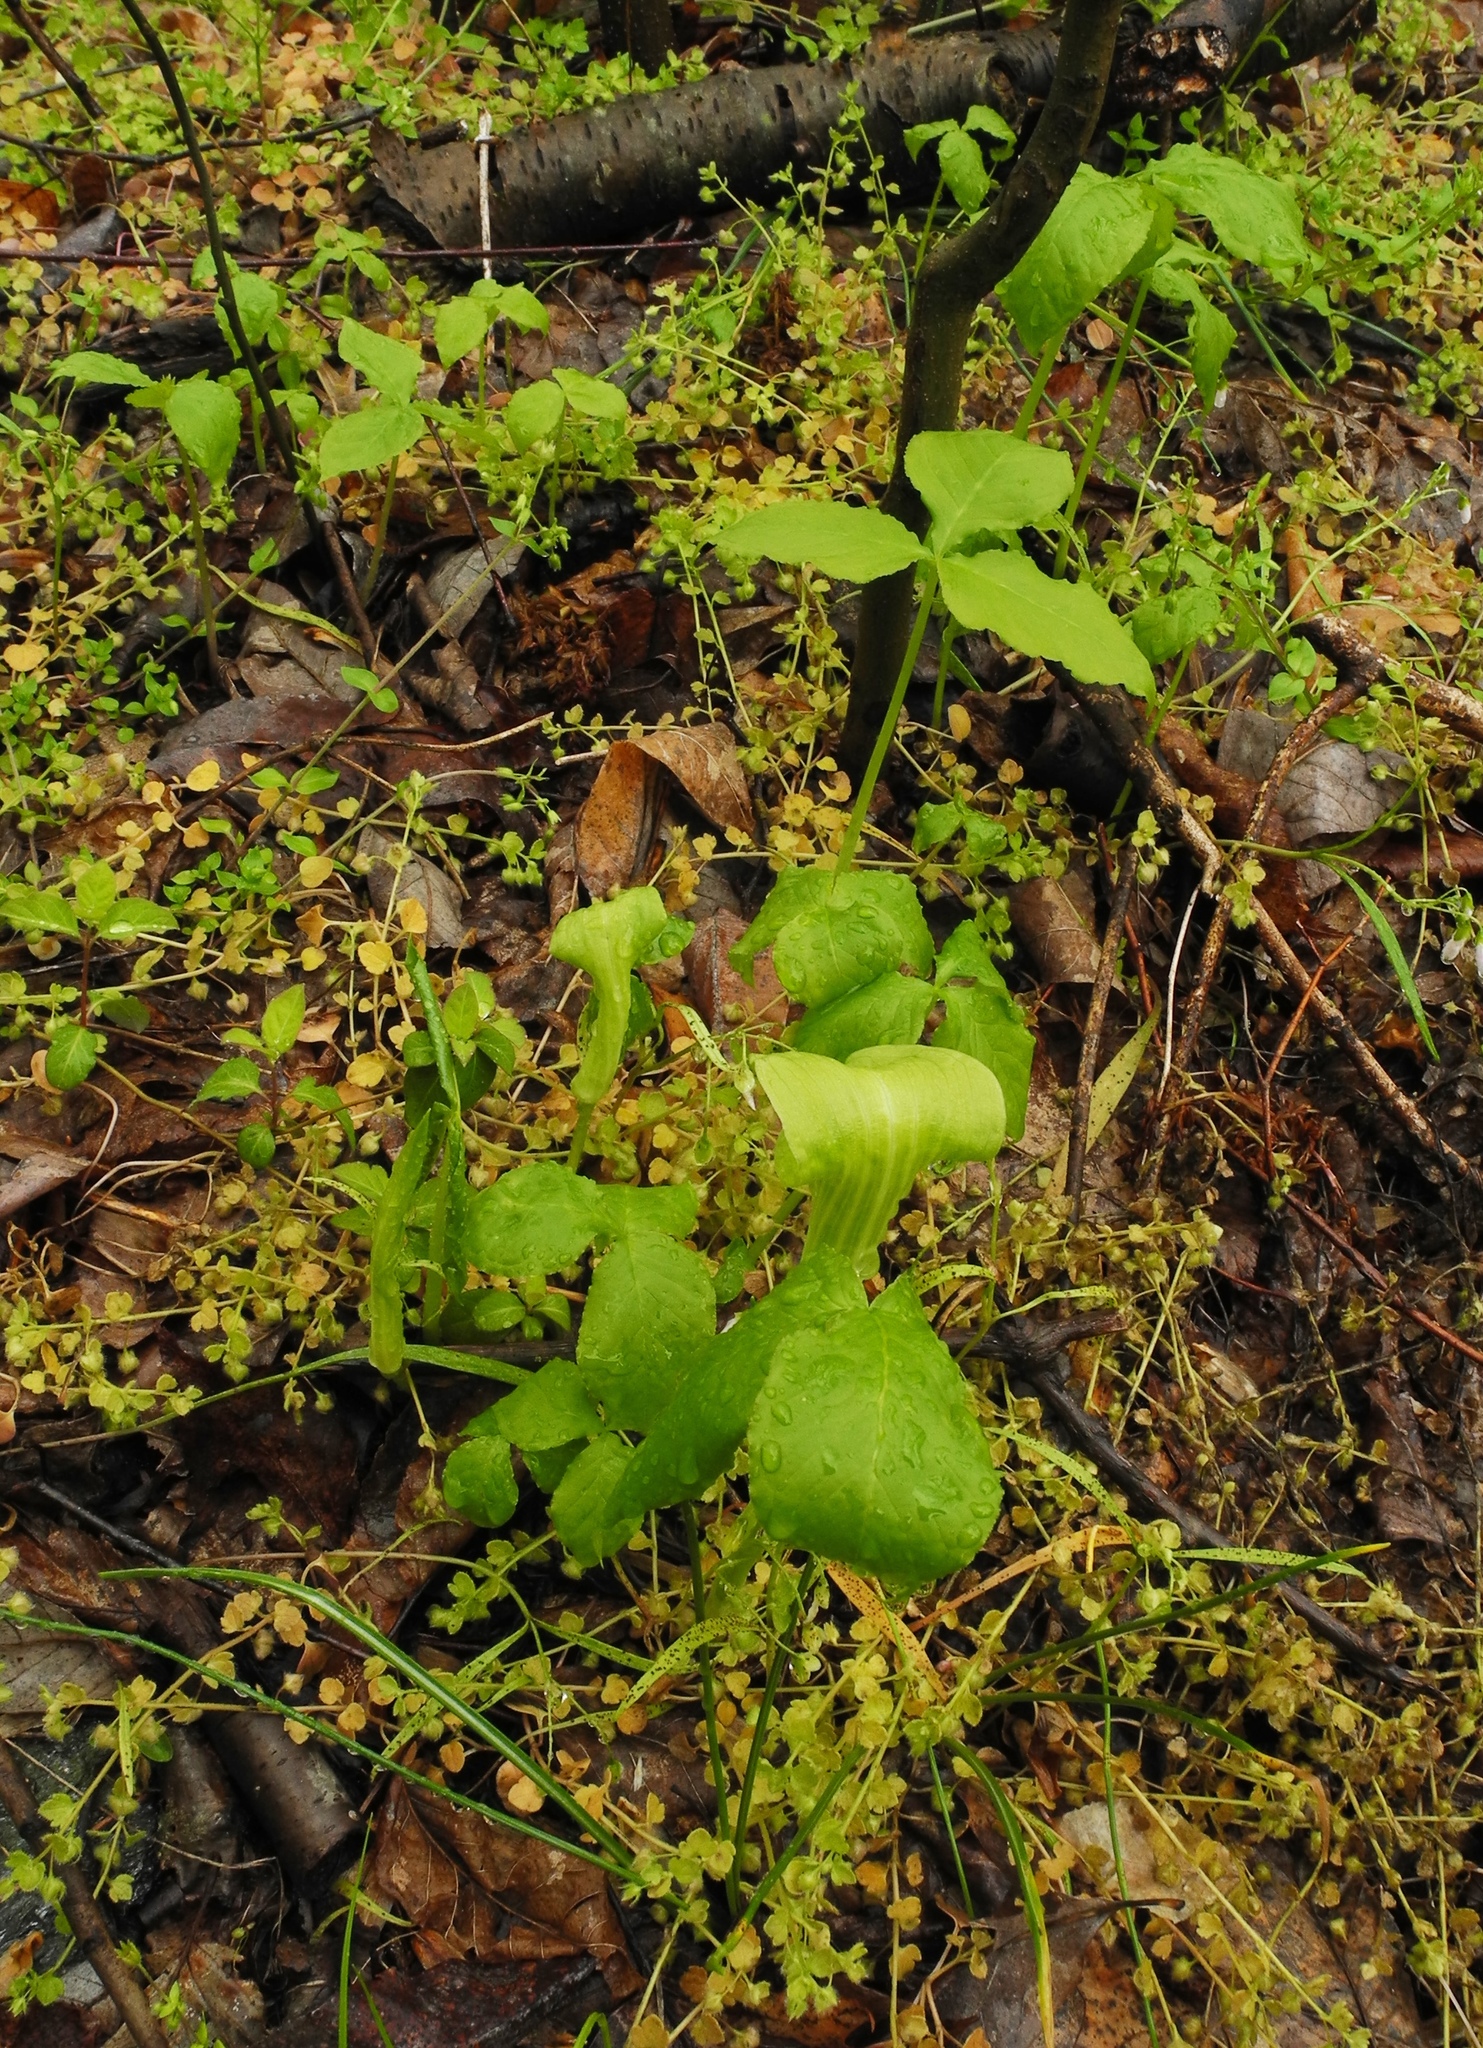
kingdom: Plantae
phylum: Tracheophyta
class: Liliopsida
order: Alismatales
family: Araceae
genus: Arisaema
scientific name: Arisaema triphyllum
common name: Jack-in-the-pulpit
